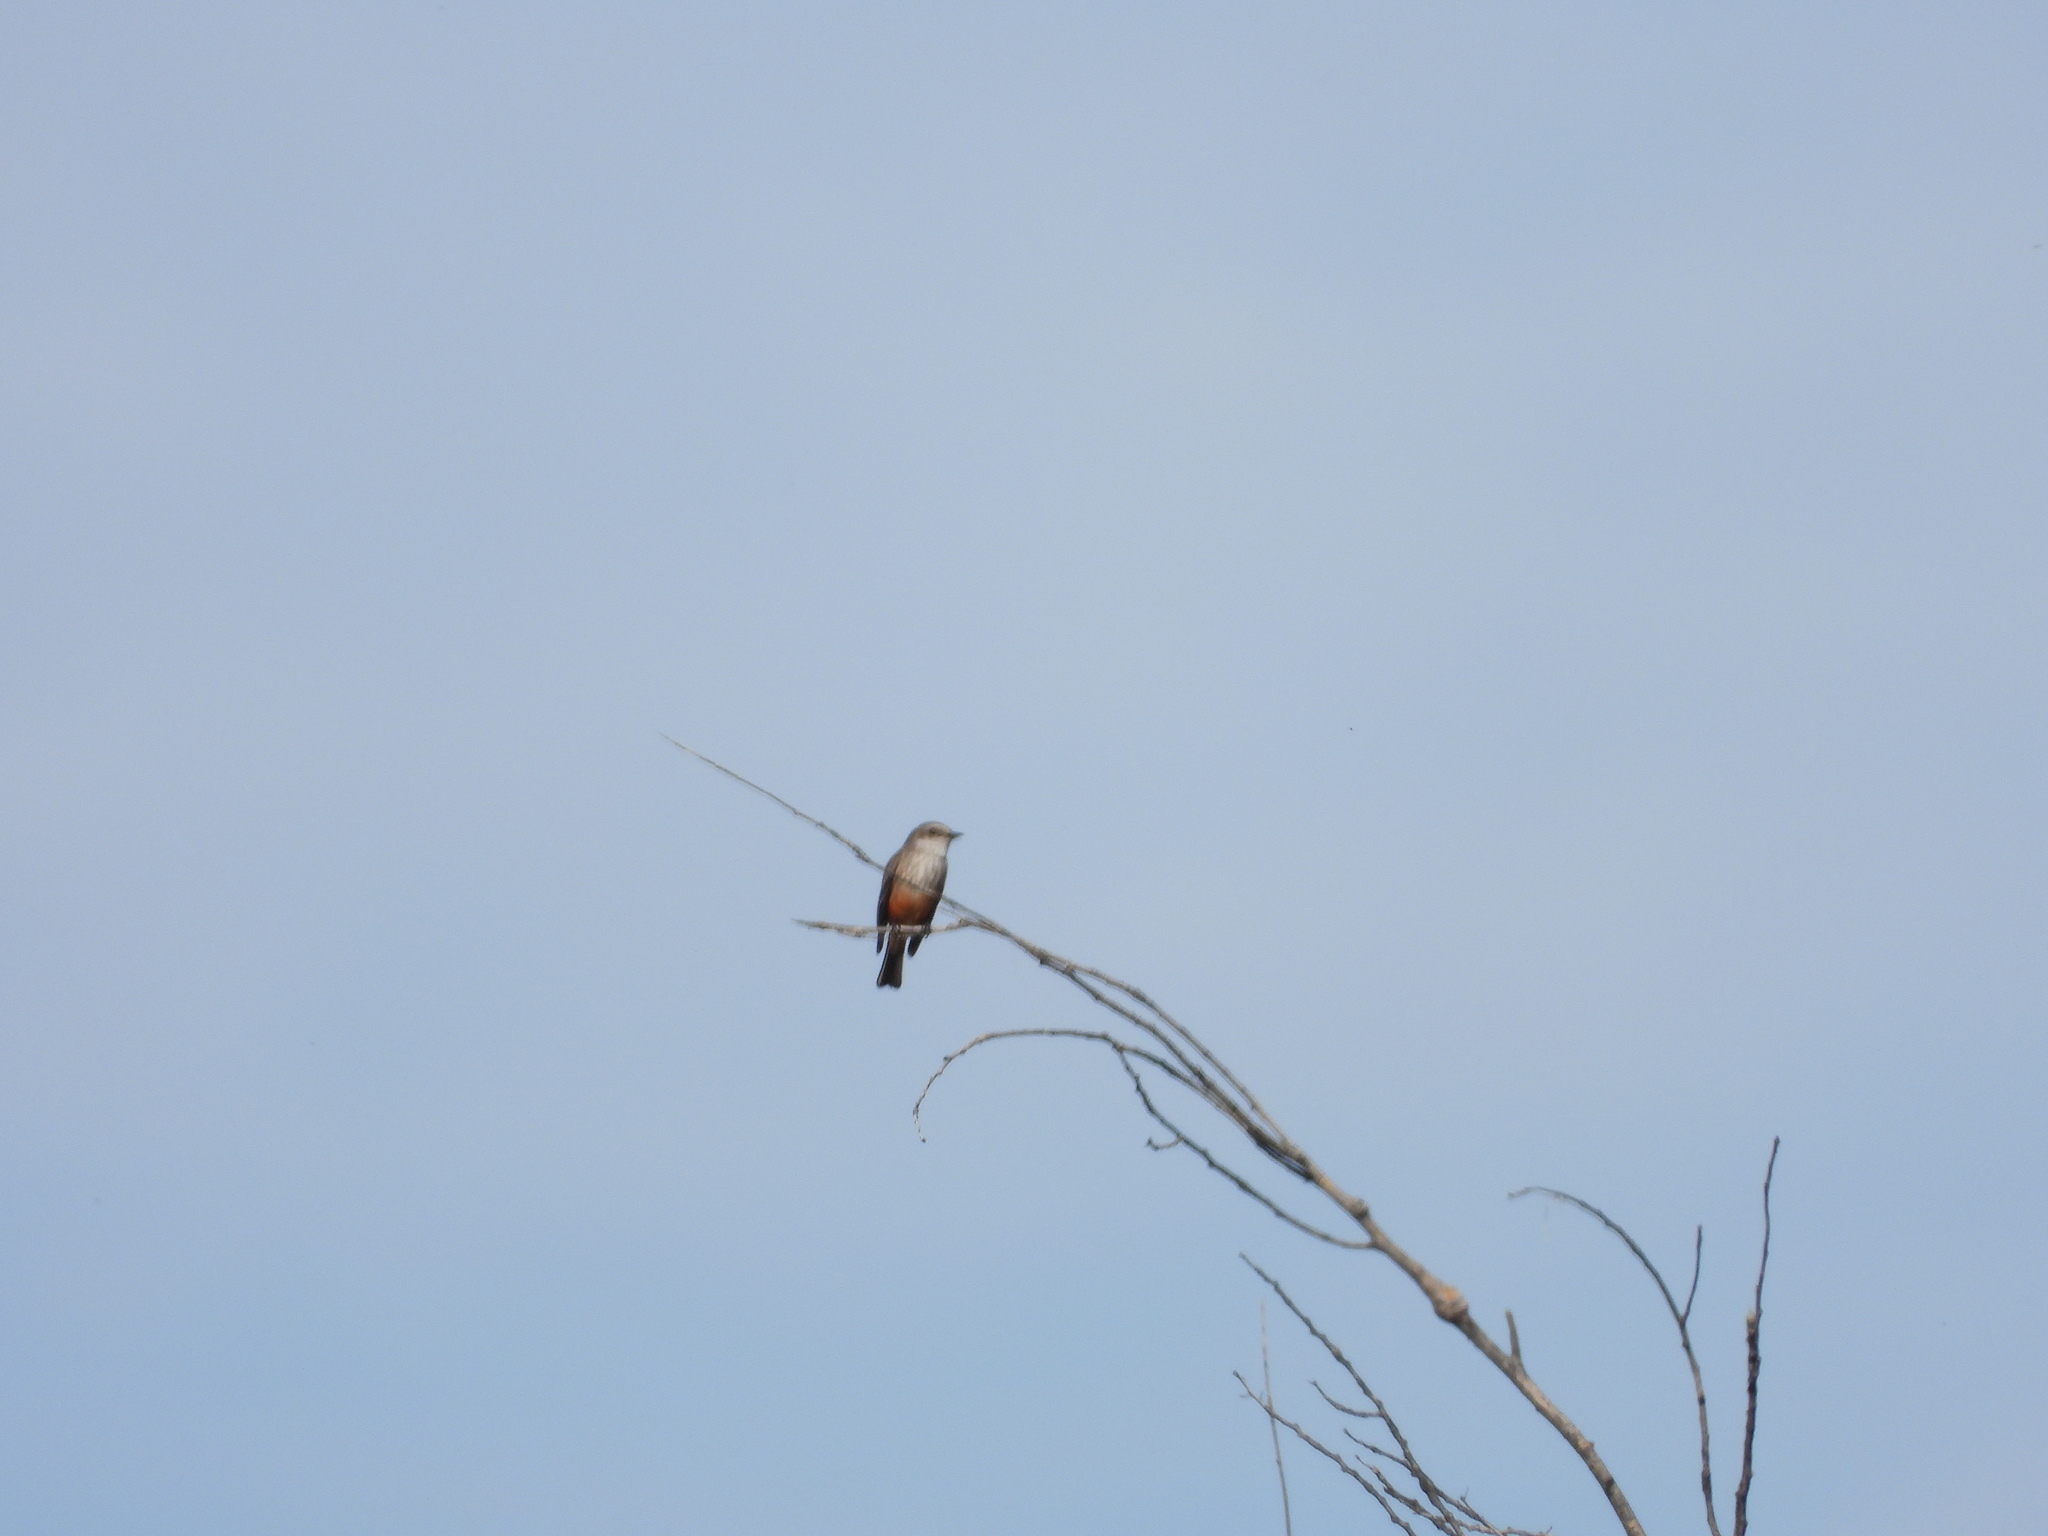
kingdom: Animalia
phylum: Chordata
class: Aves
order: Passeriformes
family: Tyrannidae
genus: Pyrocephalus
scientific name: Pyrocephalus rubinus
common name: Vermilion flycatcher
